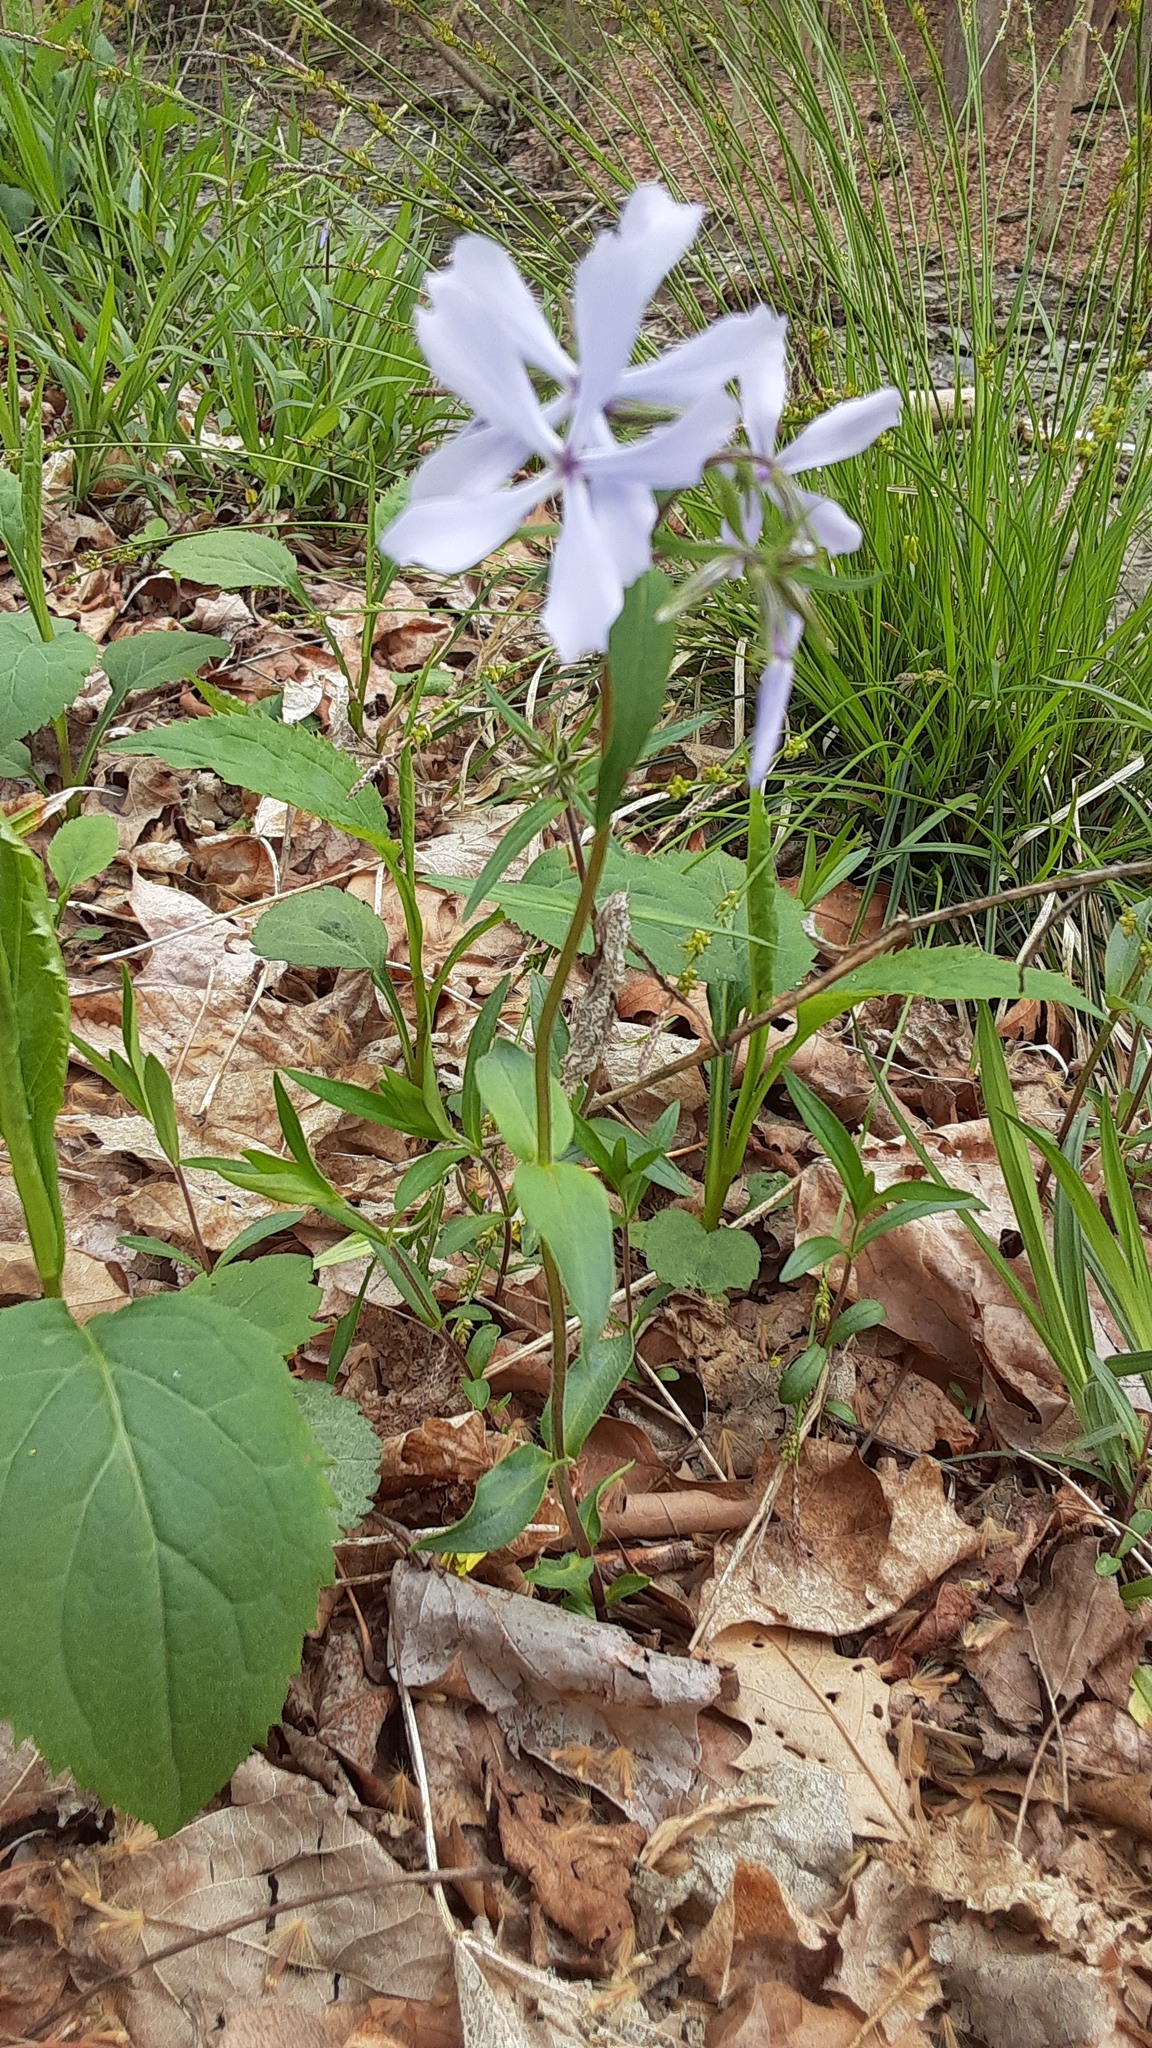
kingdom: Plantae
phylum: Tracheophyta
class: Magnoliopsida
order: Ericales
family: Polemoniaceae
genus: Phlox
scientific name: Phlox divaricata
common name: Blue phlox
